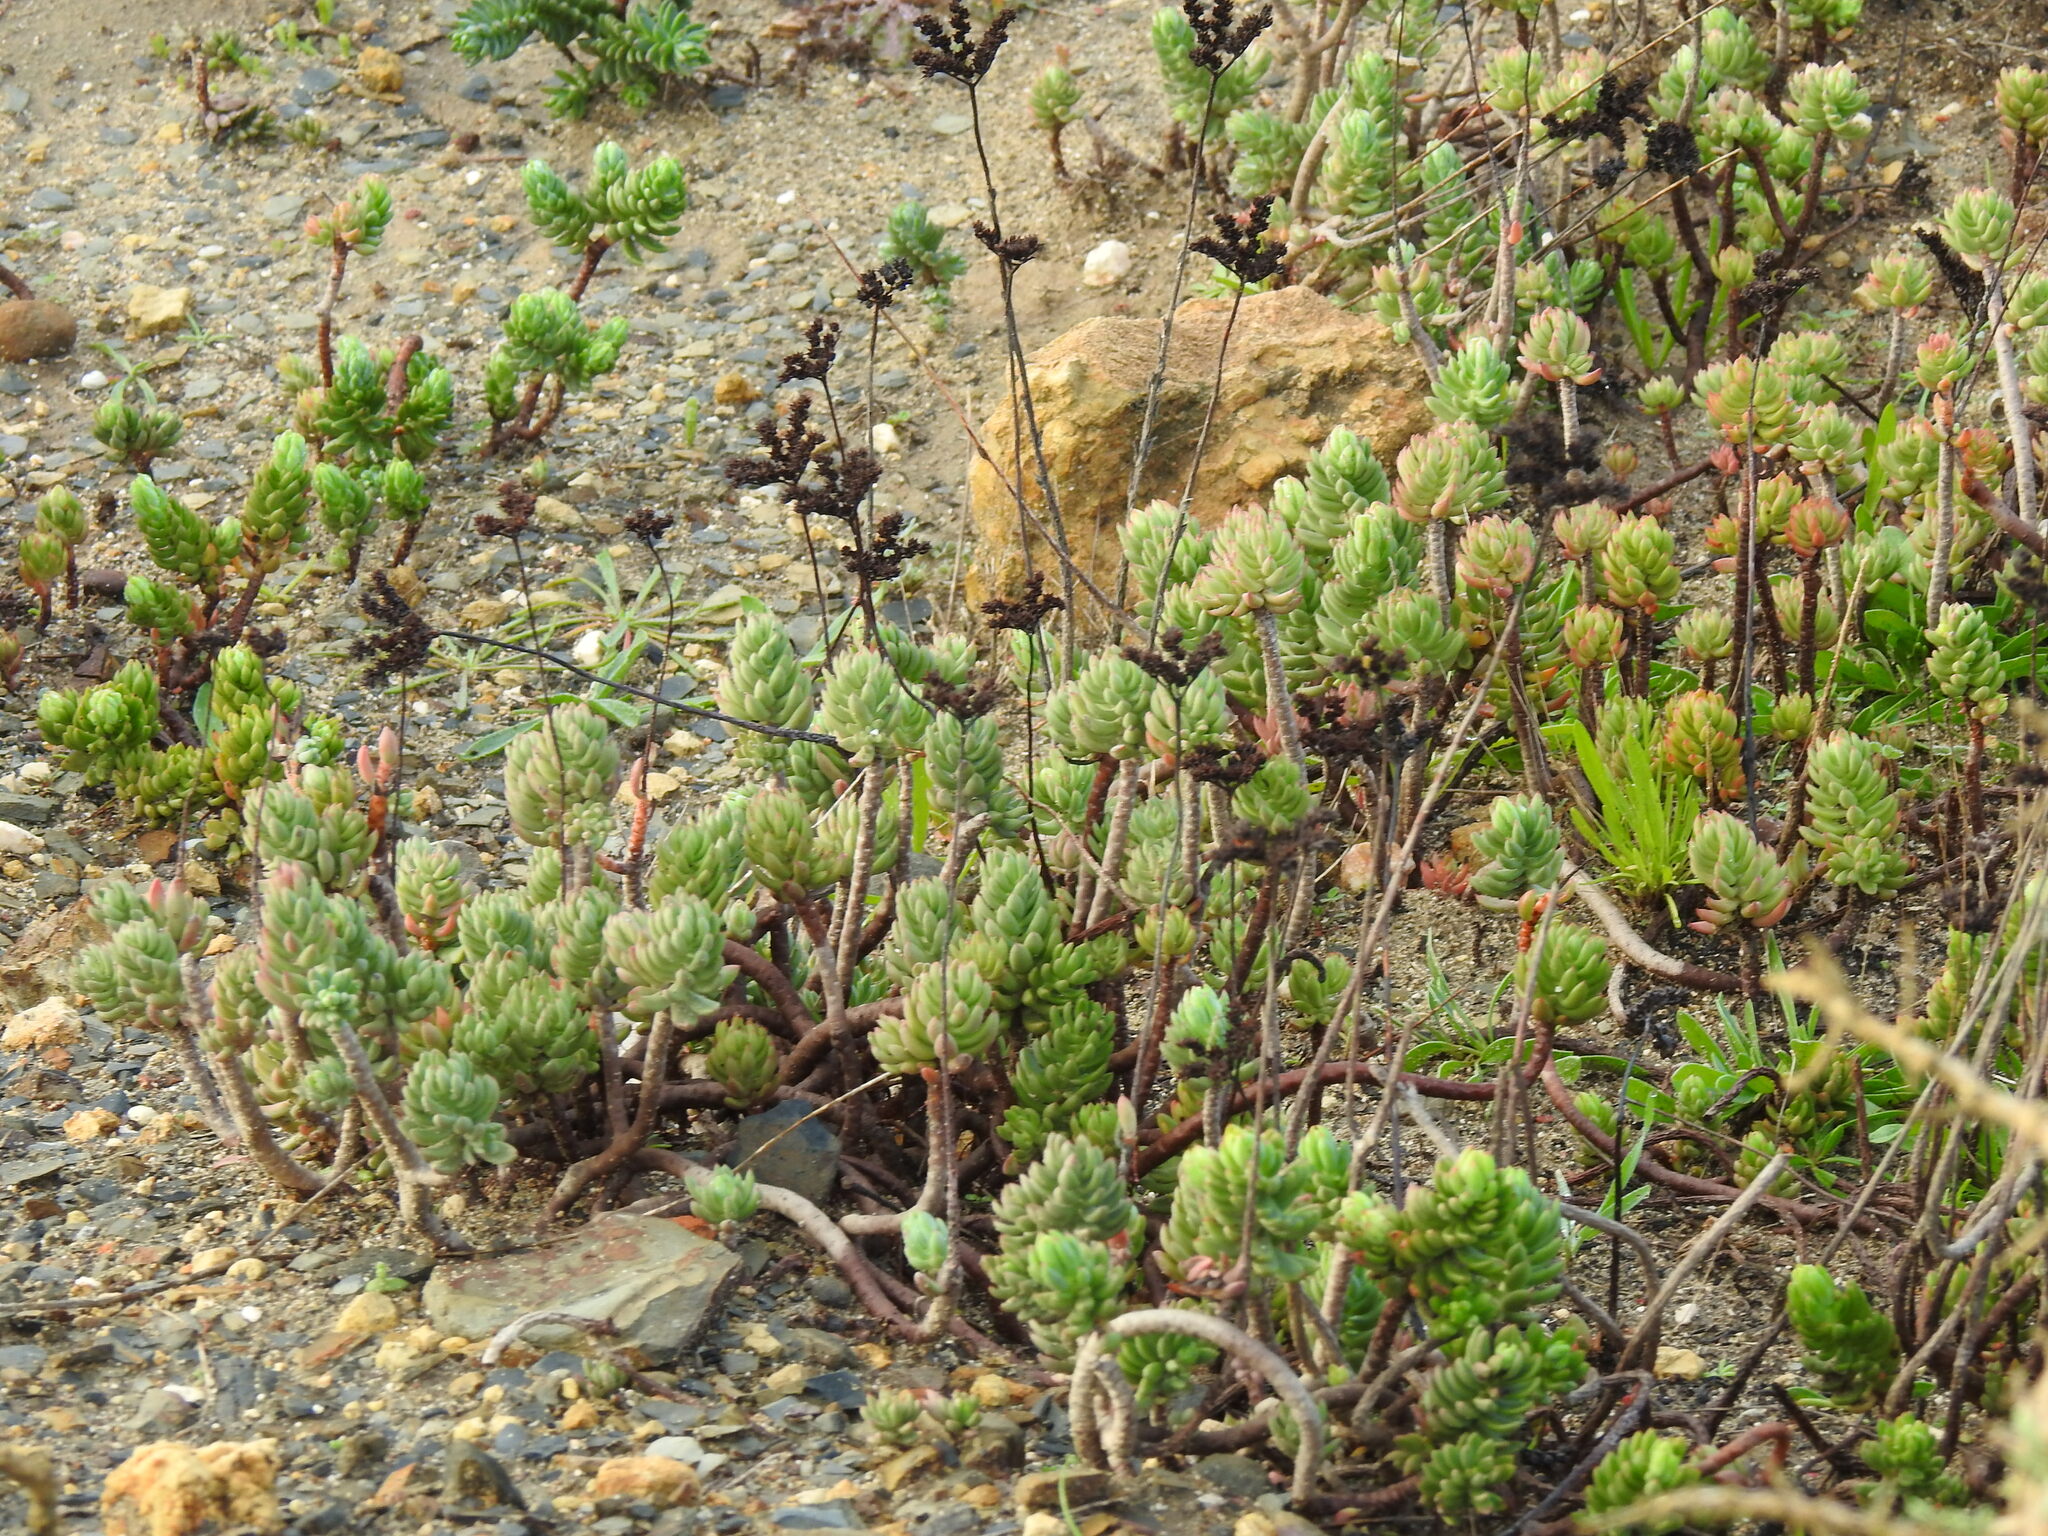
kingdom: Plantae
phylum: Tracheophyta
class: Magnoliopsida
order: Saxifragales
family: Crassulaceae
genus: Petrosedum
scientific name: Petrosedum sediforme
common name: Pale stonecrop
